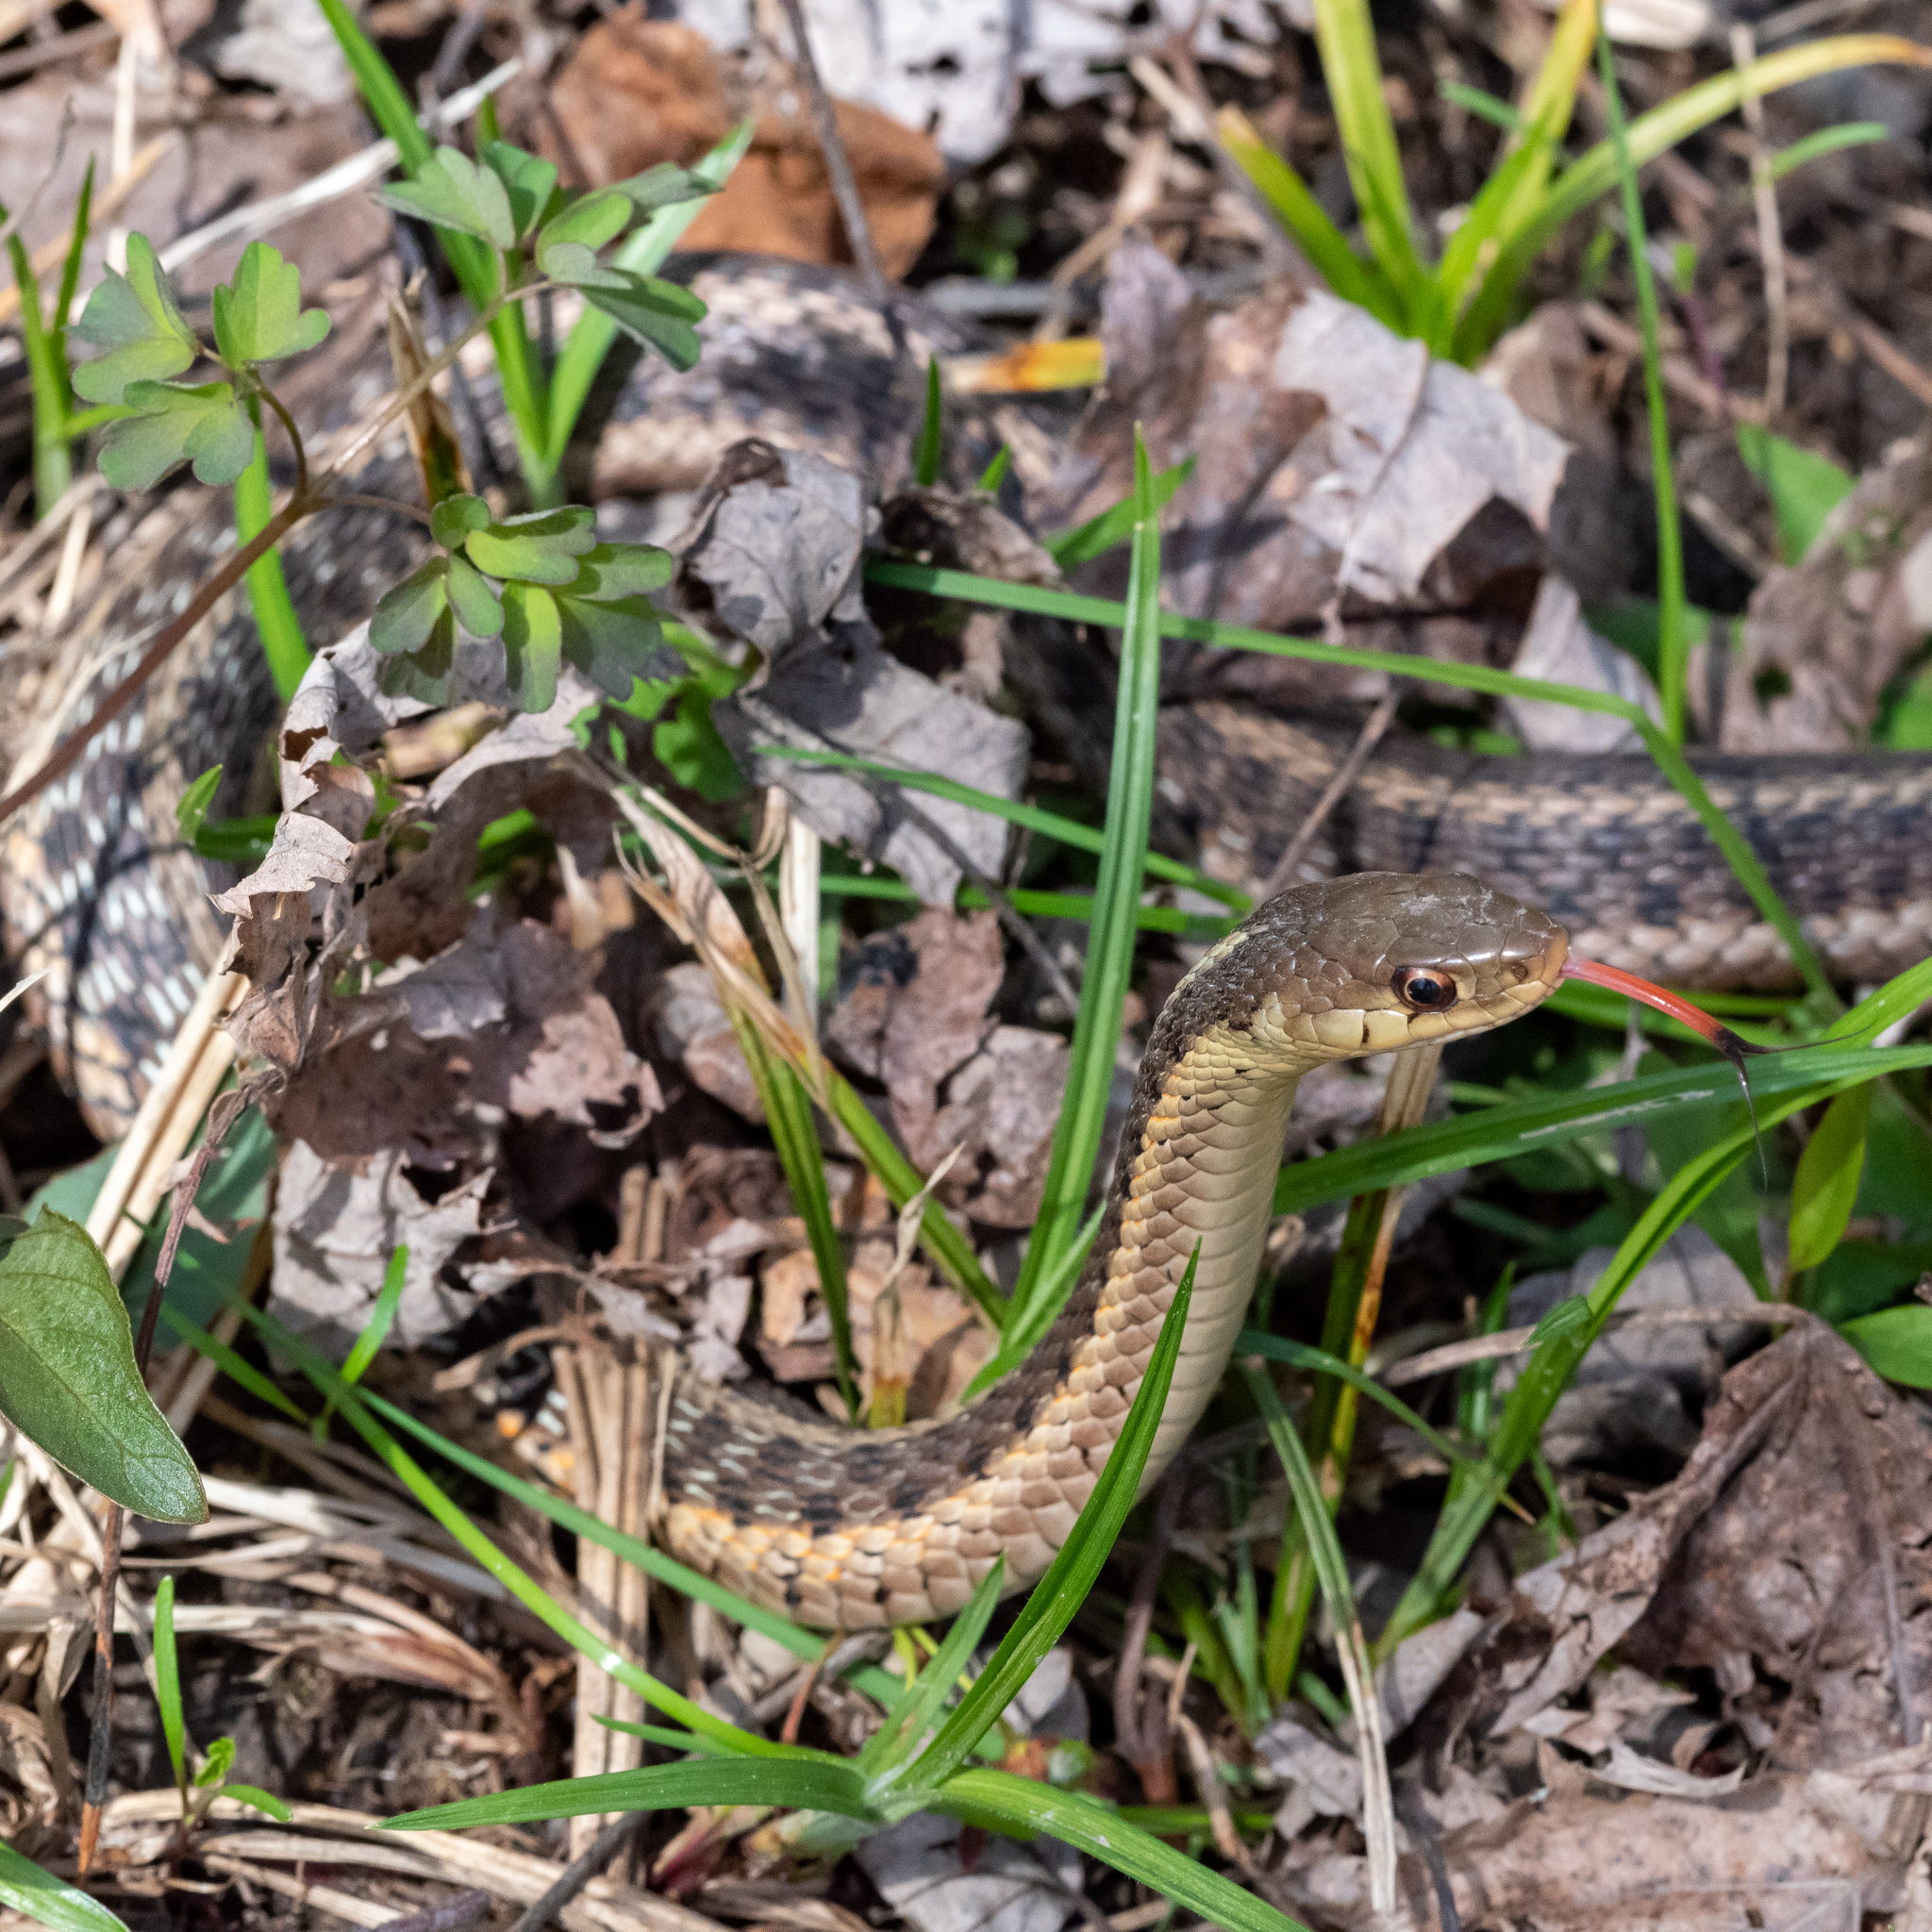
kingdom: Animalia
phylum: Chordata
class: Squamata
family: Colubridae
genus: Thamnophis
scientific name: Thamnophis sirtalis
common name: Common garter snake
